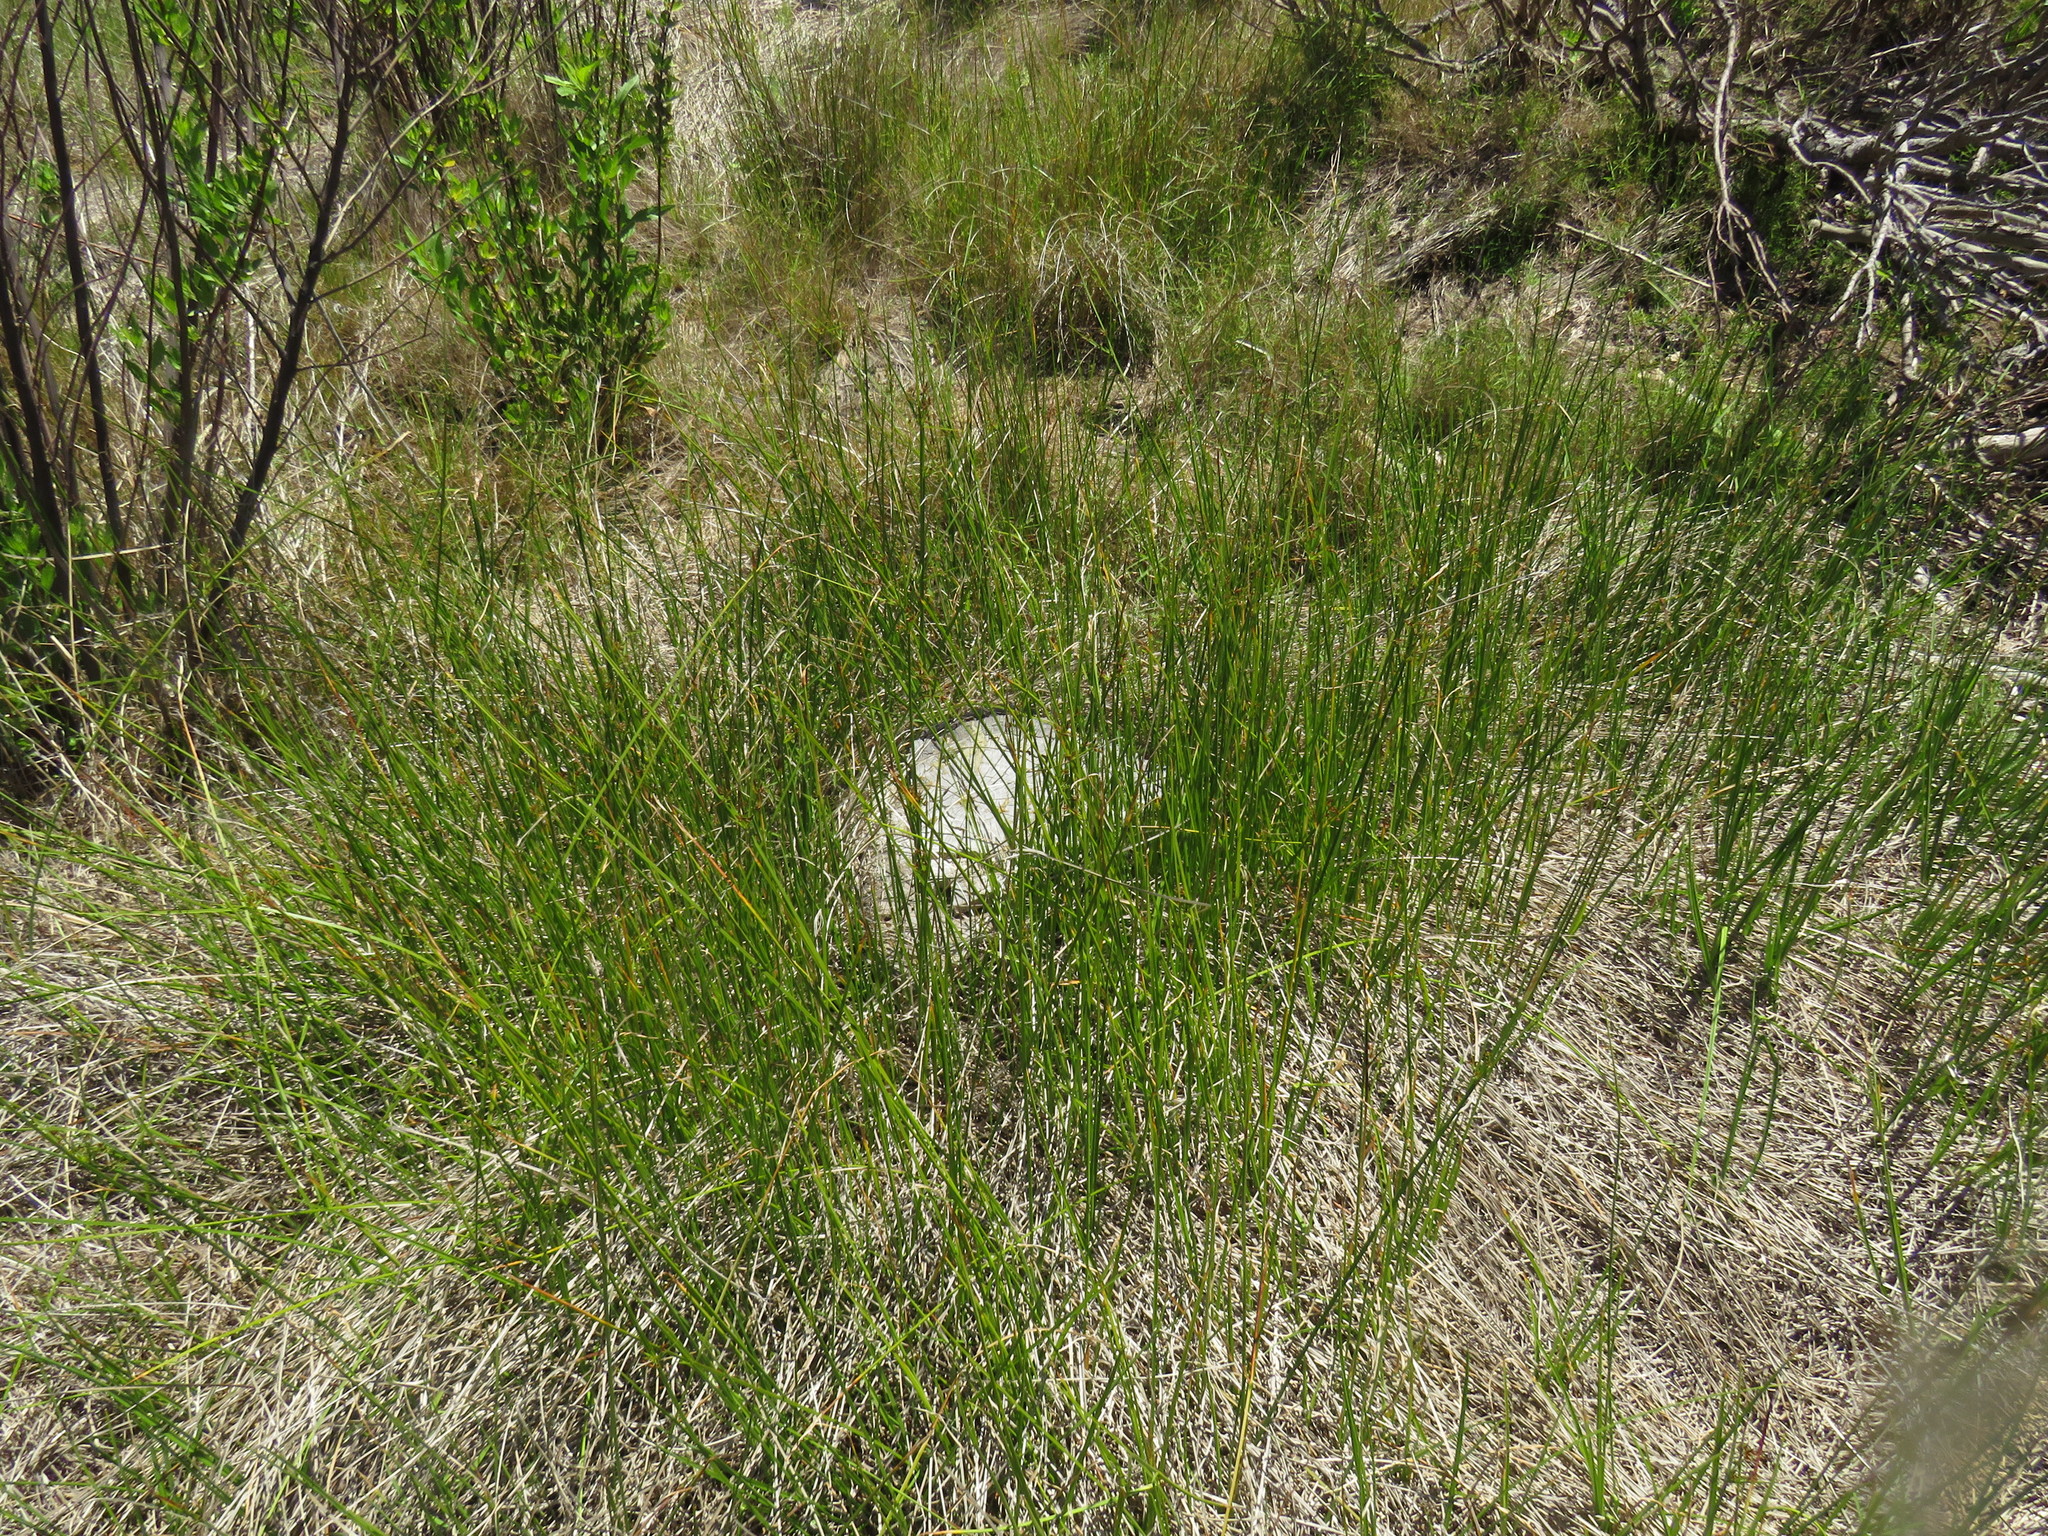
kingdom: Plantae
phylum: Tracheophyta
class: Liliopsida
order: Poales
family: Cyperaceae
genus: Cyperus
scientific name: Cyperus denudatus
